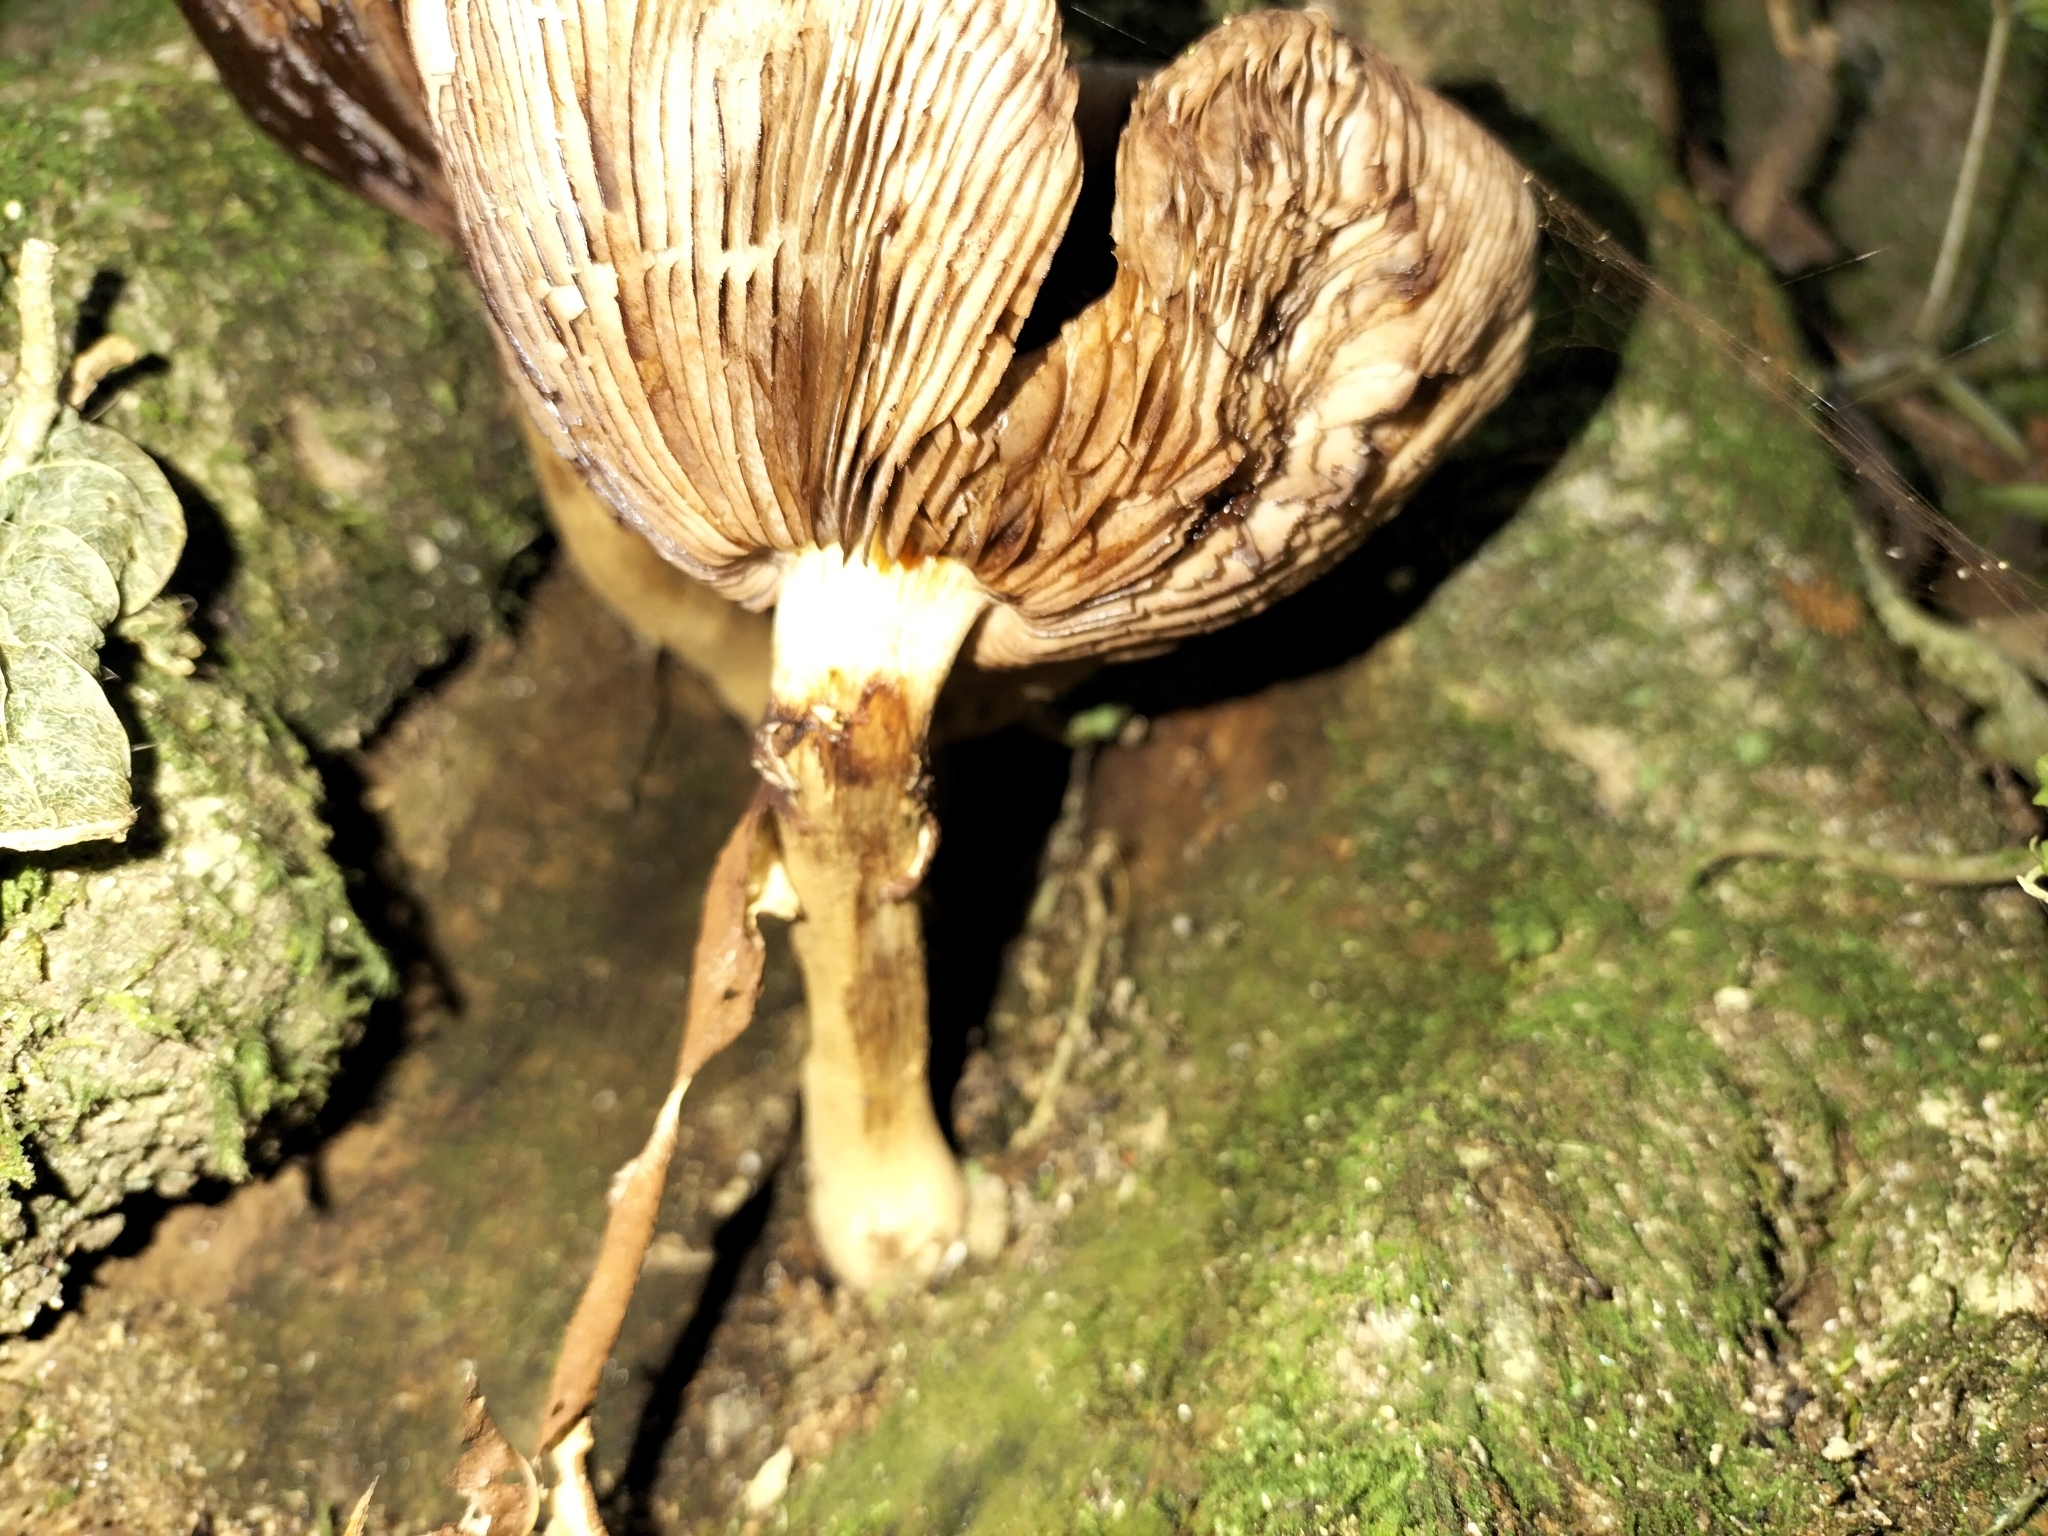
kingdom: Fungi
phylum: Basidiomycota
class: Agaricomycetes
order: Agaricales
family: Physalacriaceae
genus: Armillaria
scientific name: Armillaria novae-zelandiae
